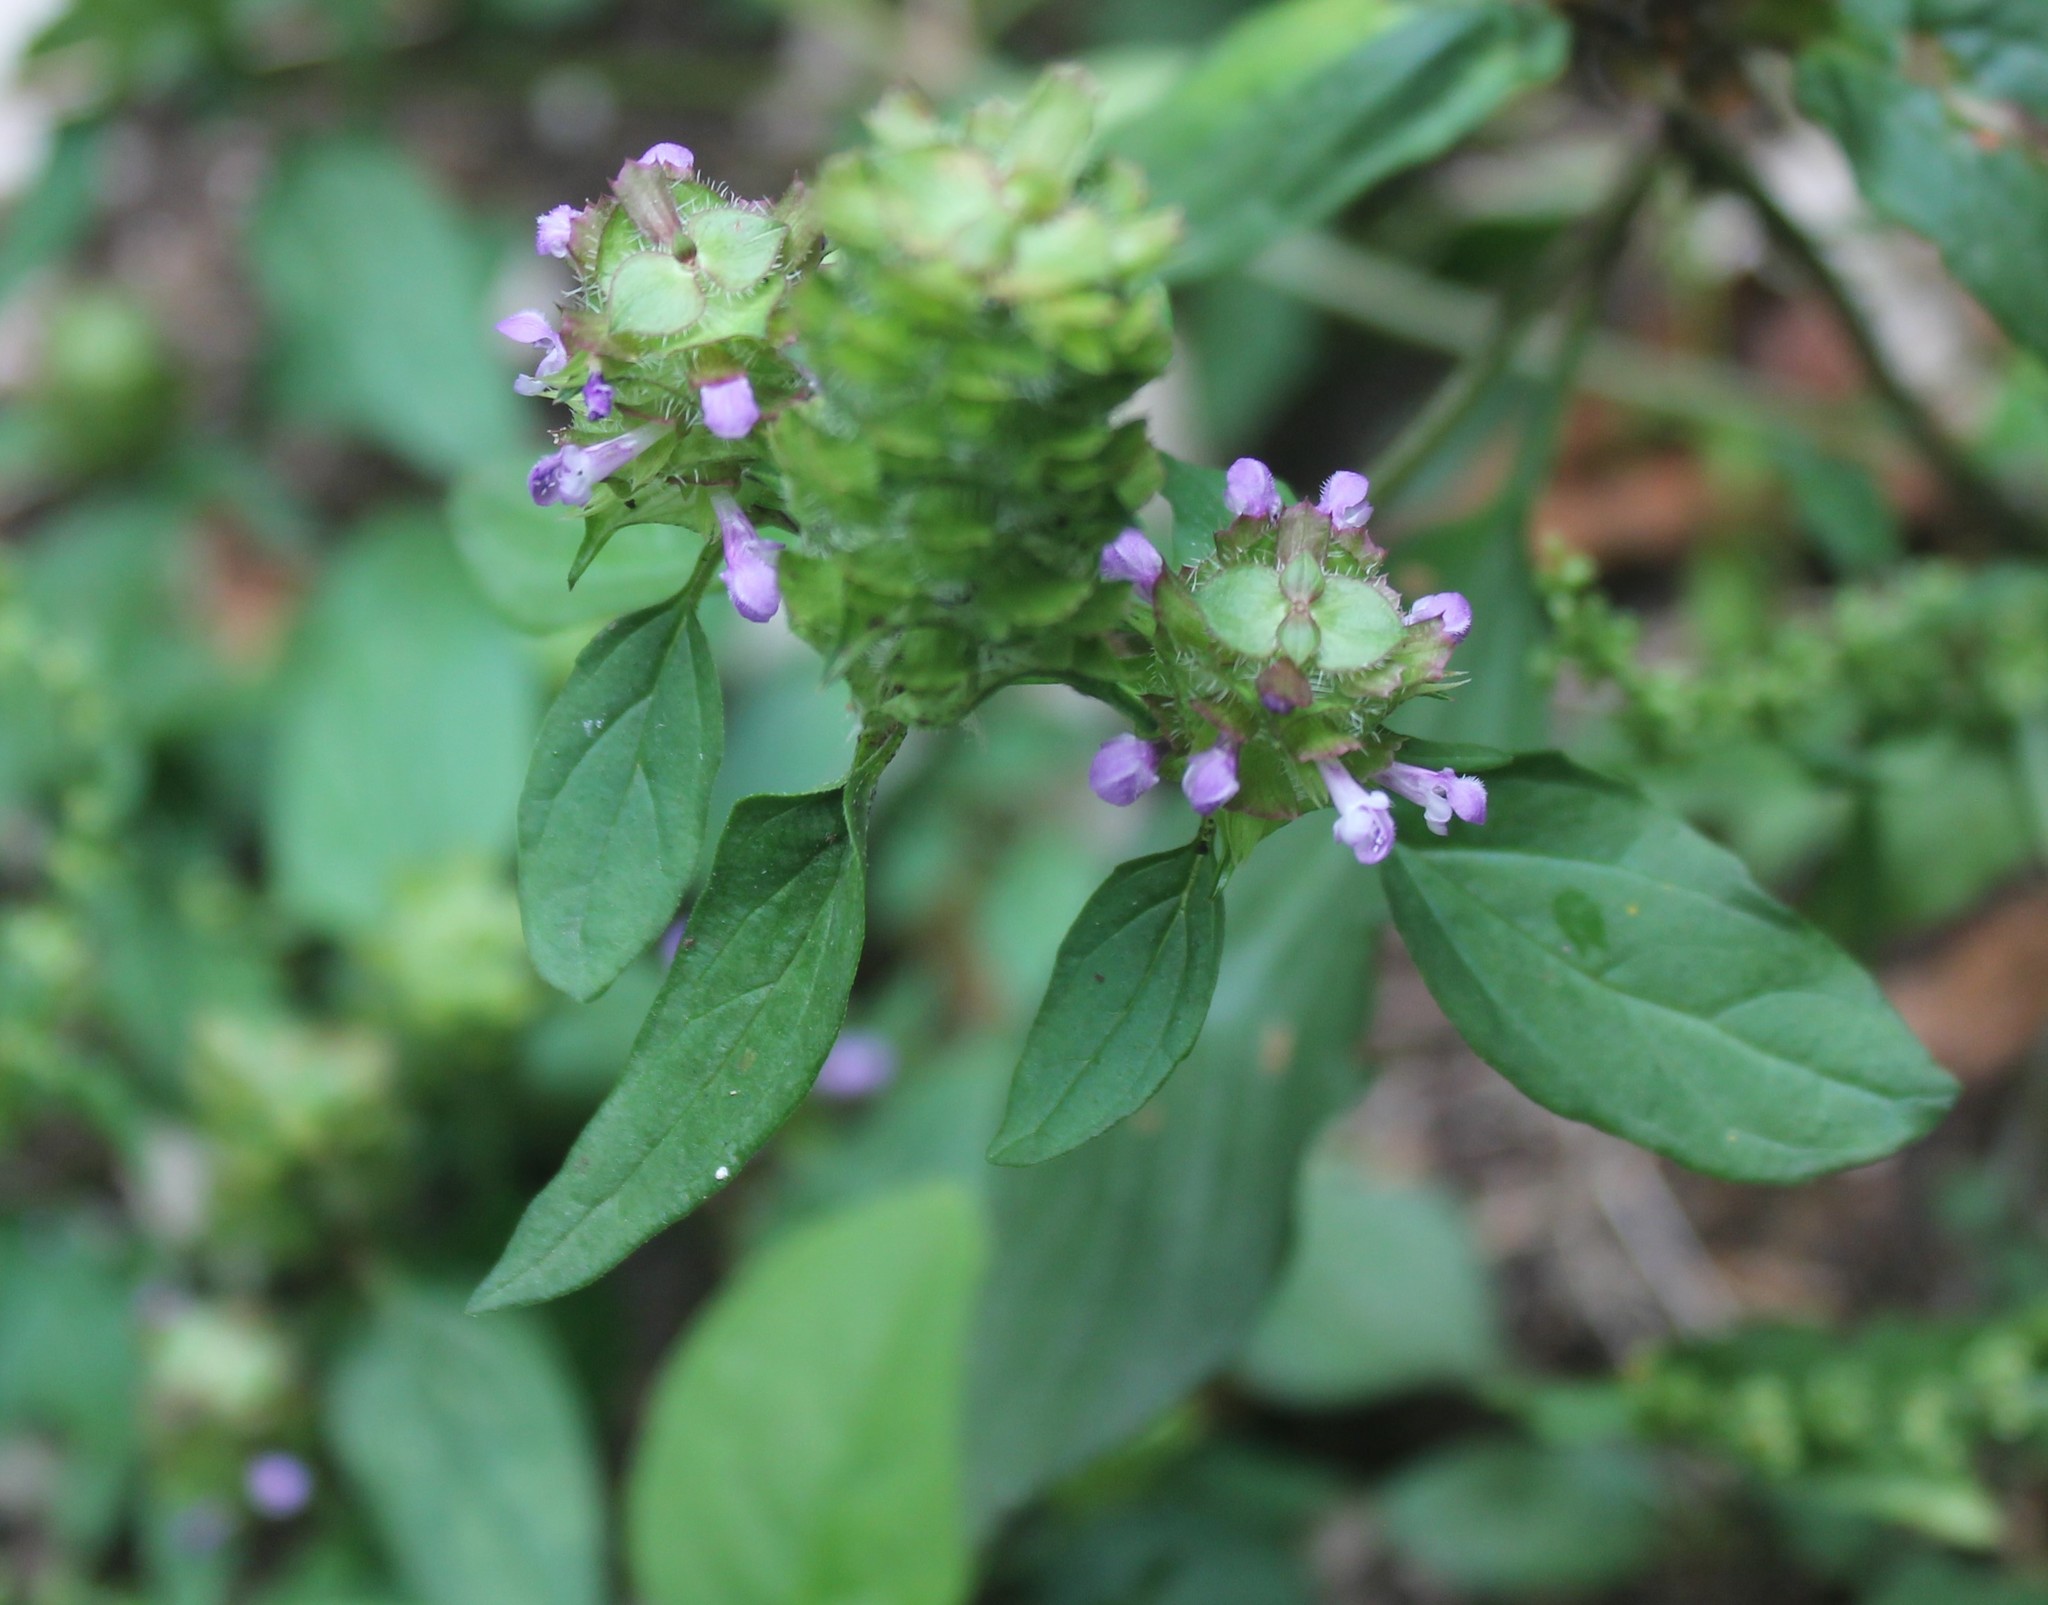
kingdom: Plantae
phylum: Tracheophyta
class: Magnoliopsida
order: Lamiales
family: Lamiaceae
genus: Prunella
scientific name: Prunella vulgaris
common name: Heal-all
